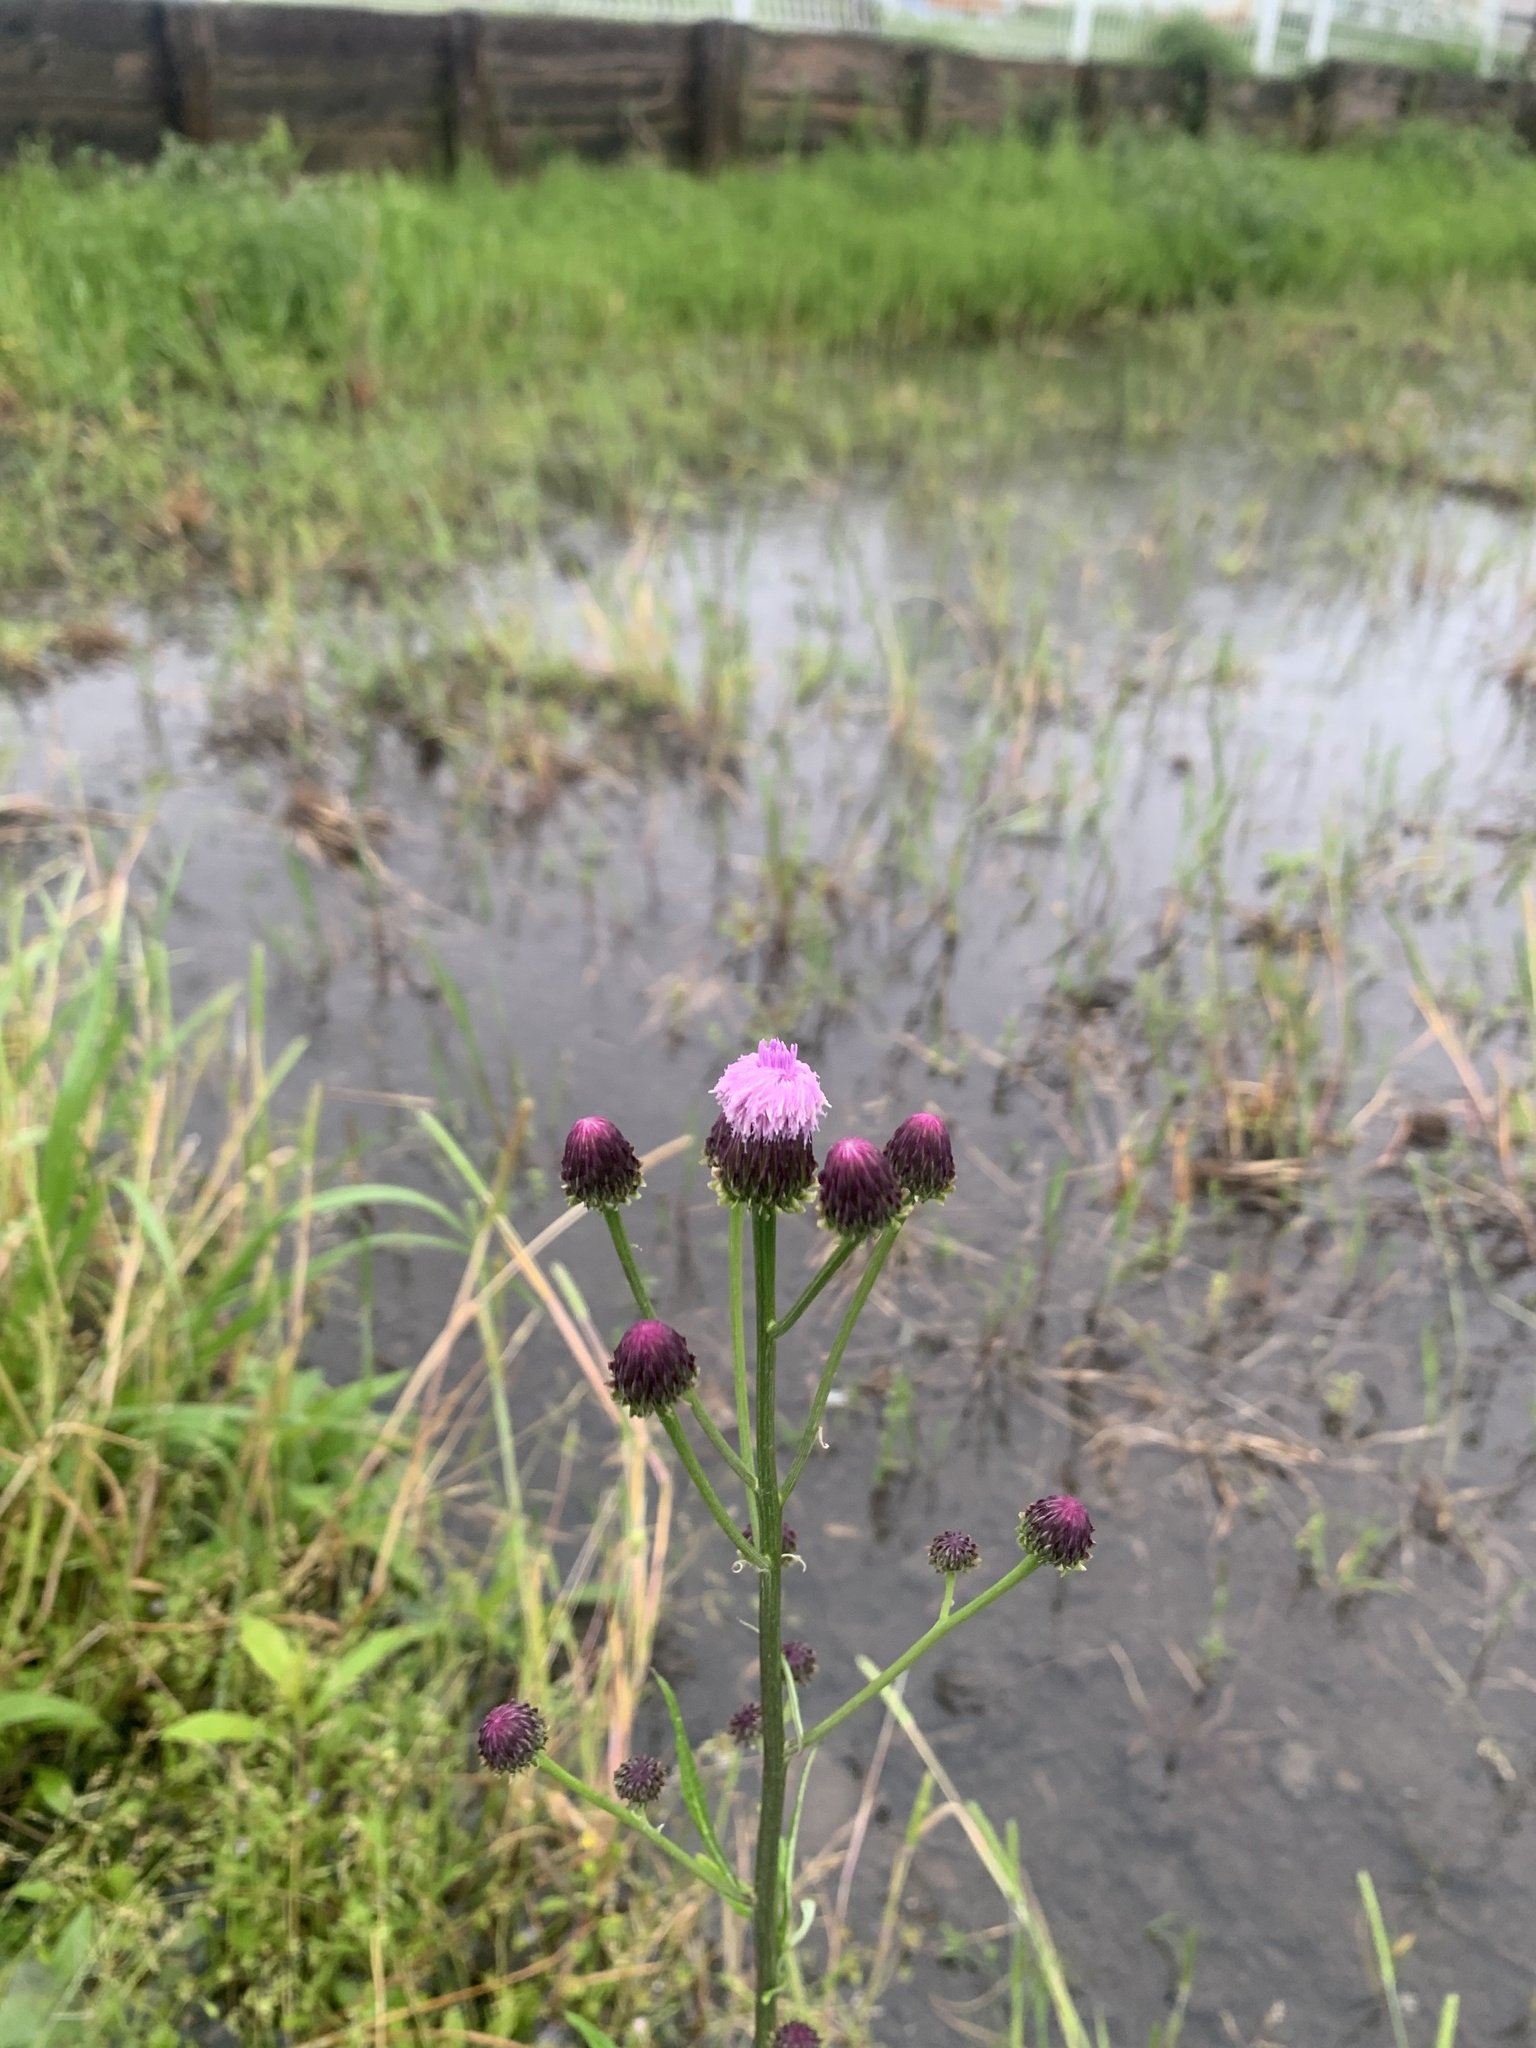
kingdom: Plantae
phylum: Tracheophyta
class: Magnoliopsida
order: Asterales
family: Asteraceae
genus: Saussurea
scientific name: Saussurea lyrata
